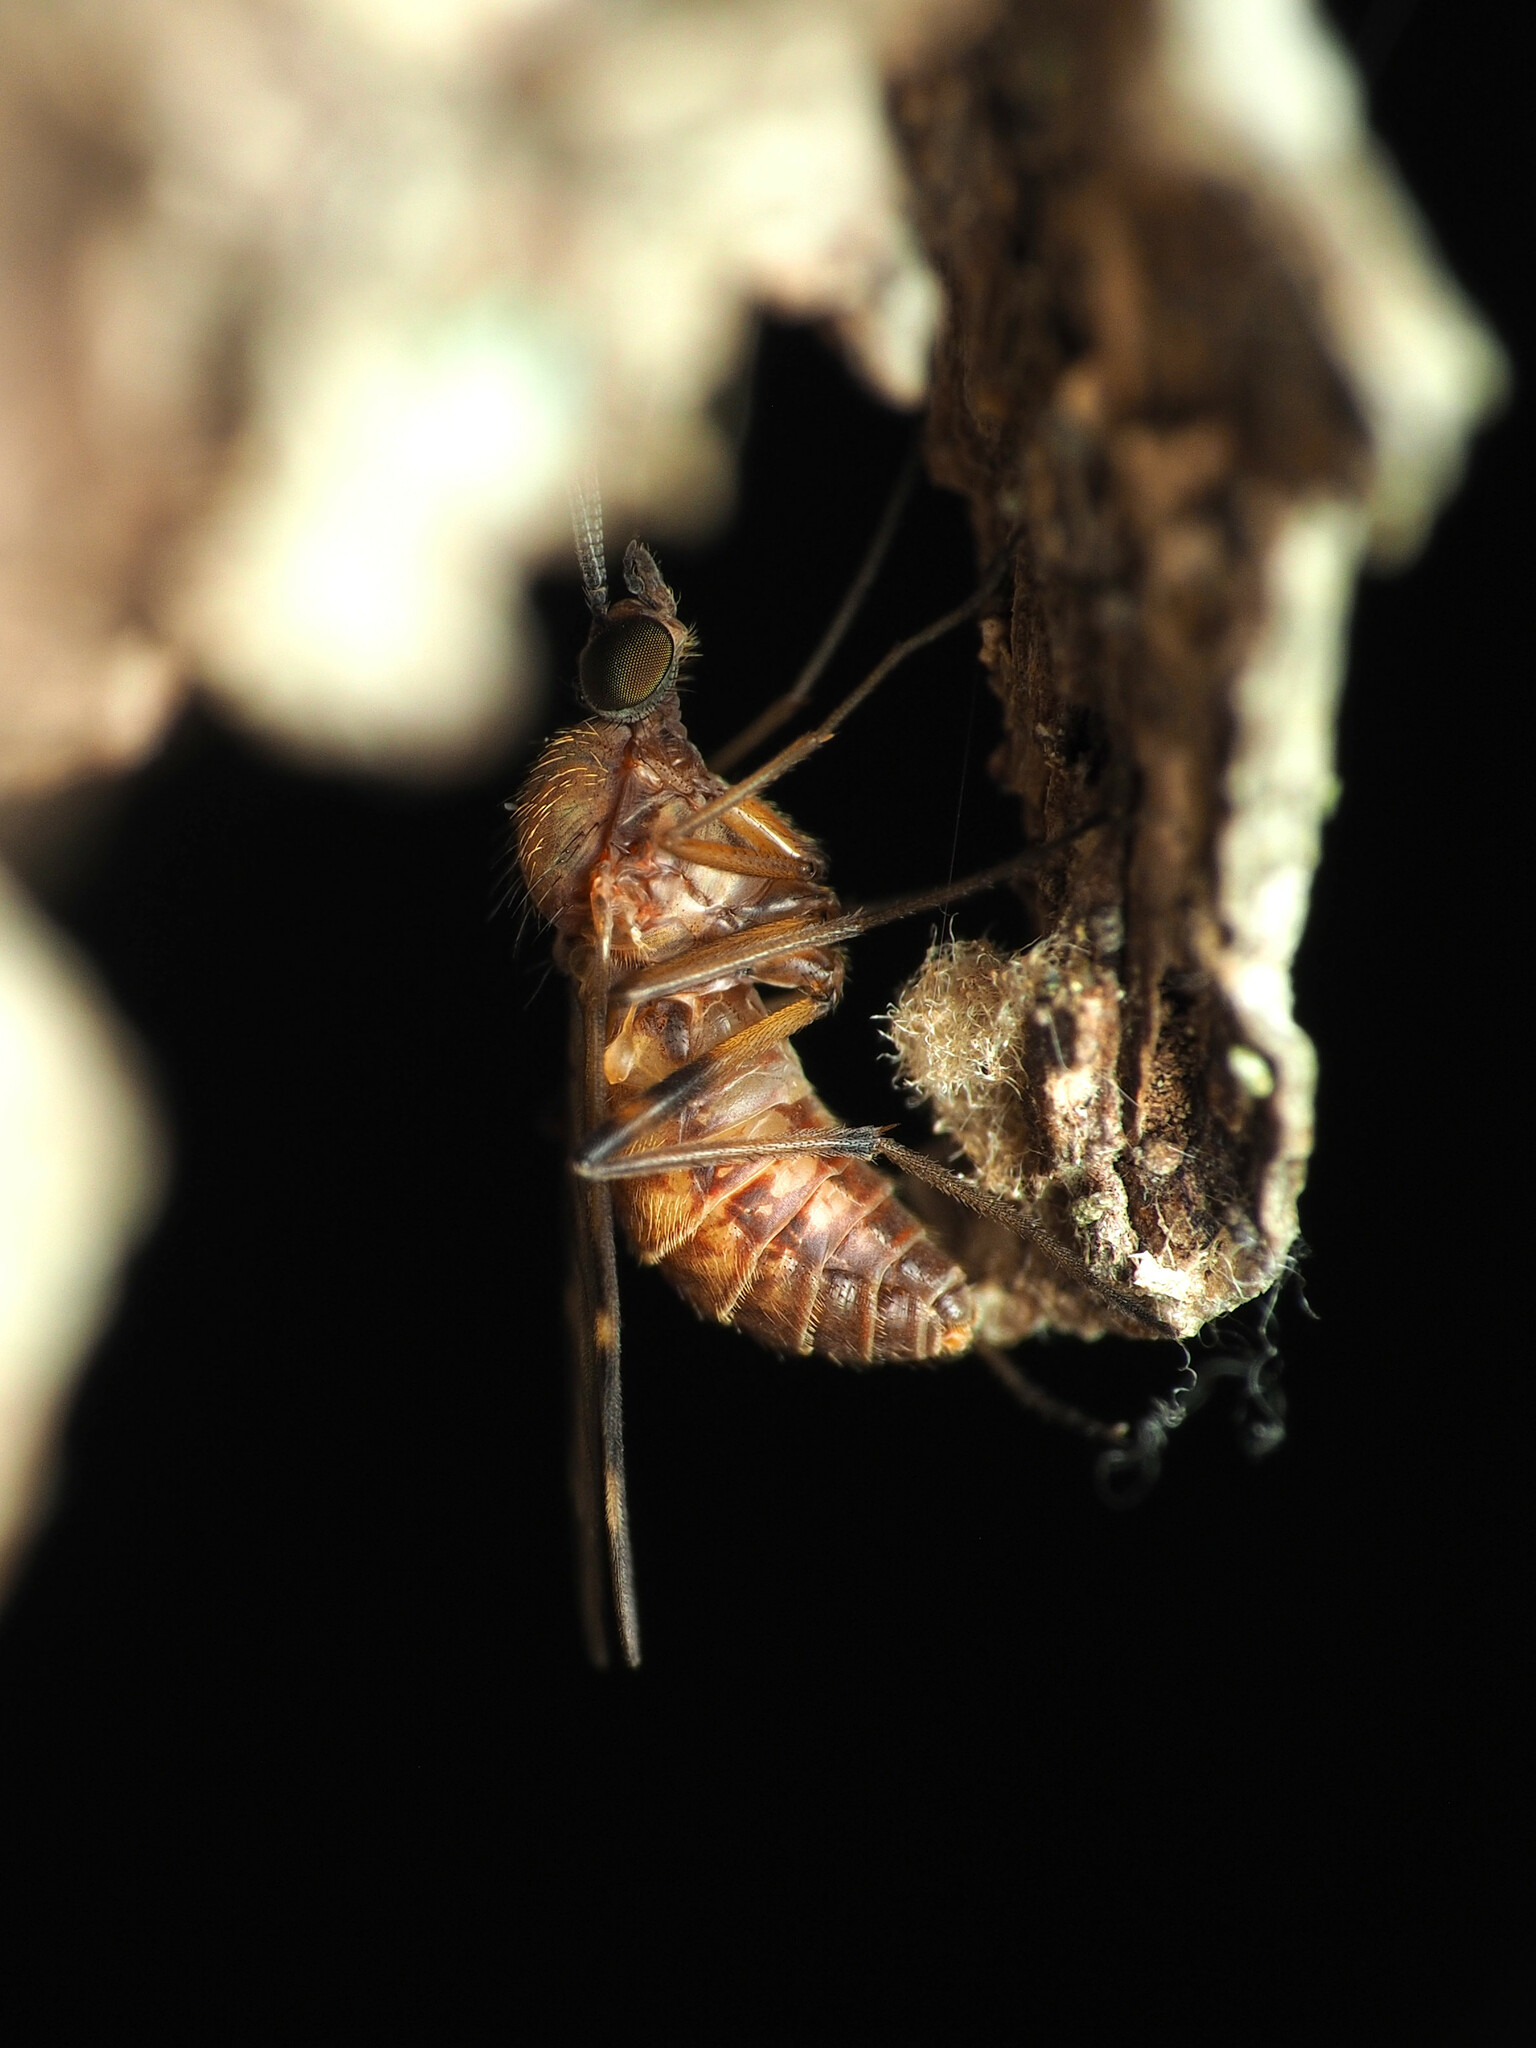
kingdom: Animalia
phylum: Arthropoda
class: Insecta
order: Diptera
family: Anisopodidae
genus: Sylvicola
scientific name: Sylvicola alternata
